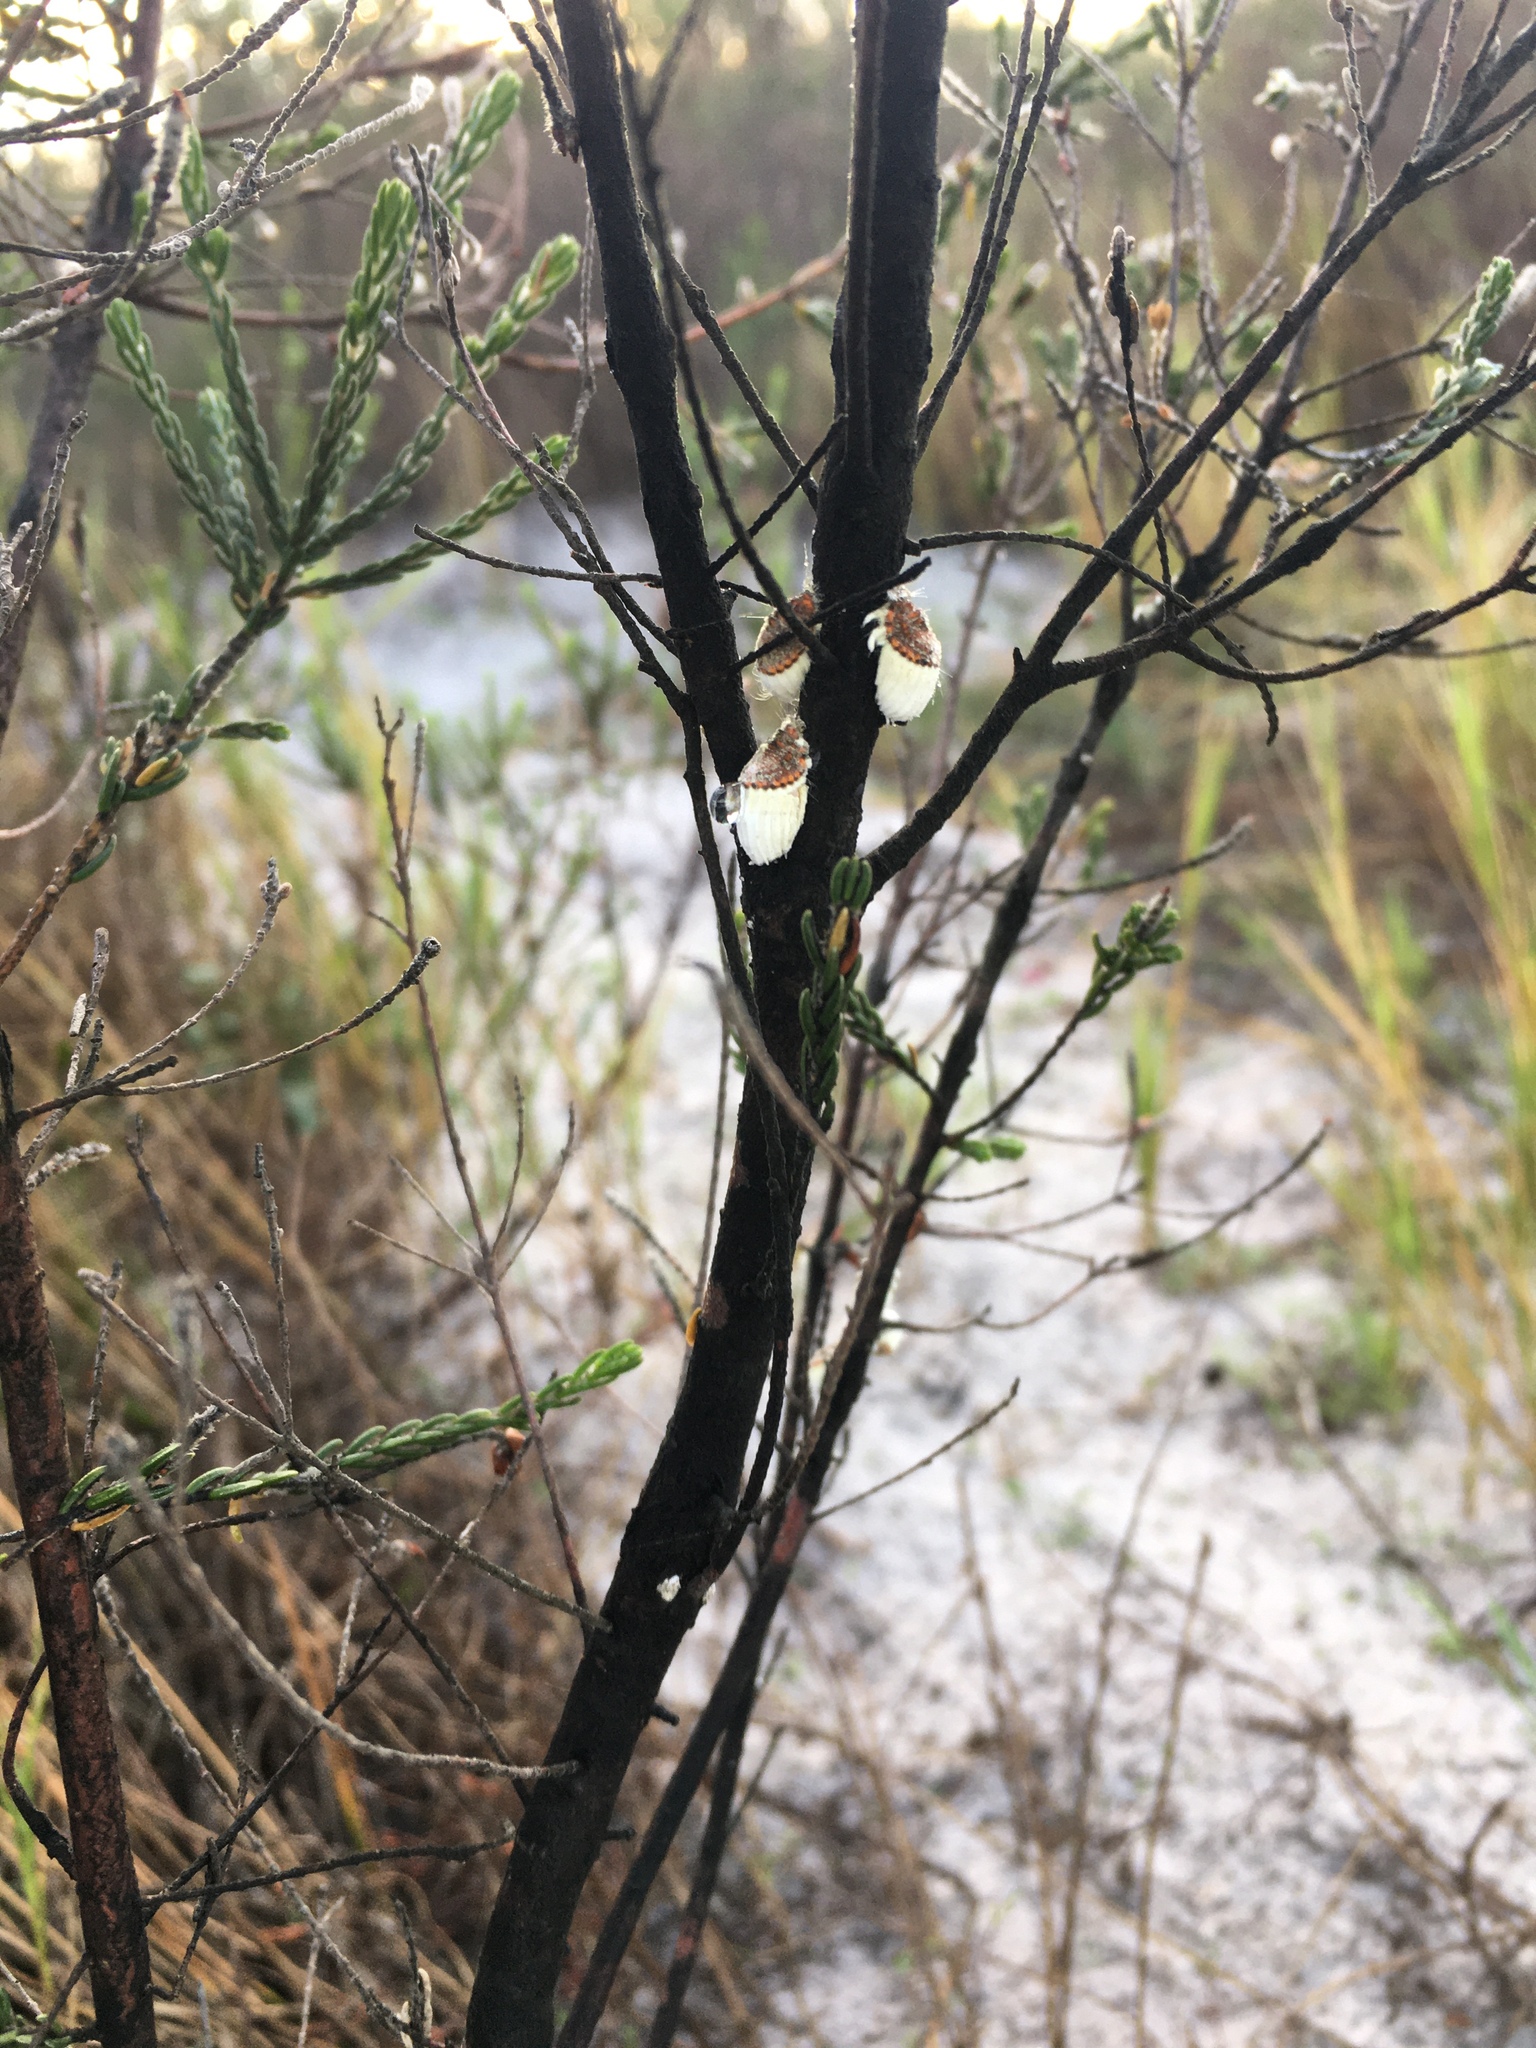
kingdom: Animalia
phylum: Arthropoda
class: Insecta
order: Hemiptera
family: Margarodidae
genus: Icerya
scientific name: Icerya purchasi
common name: Cottony cushion scale
